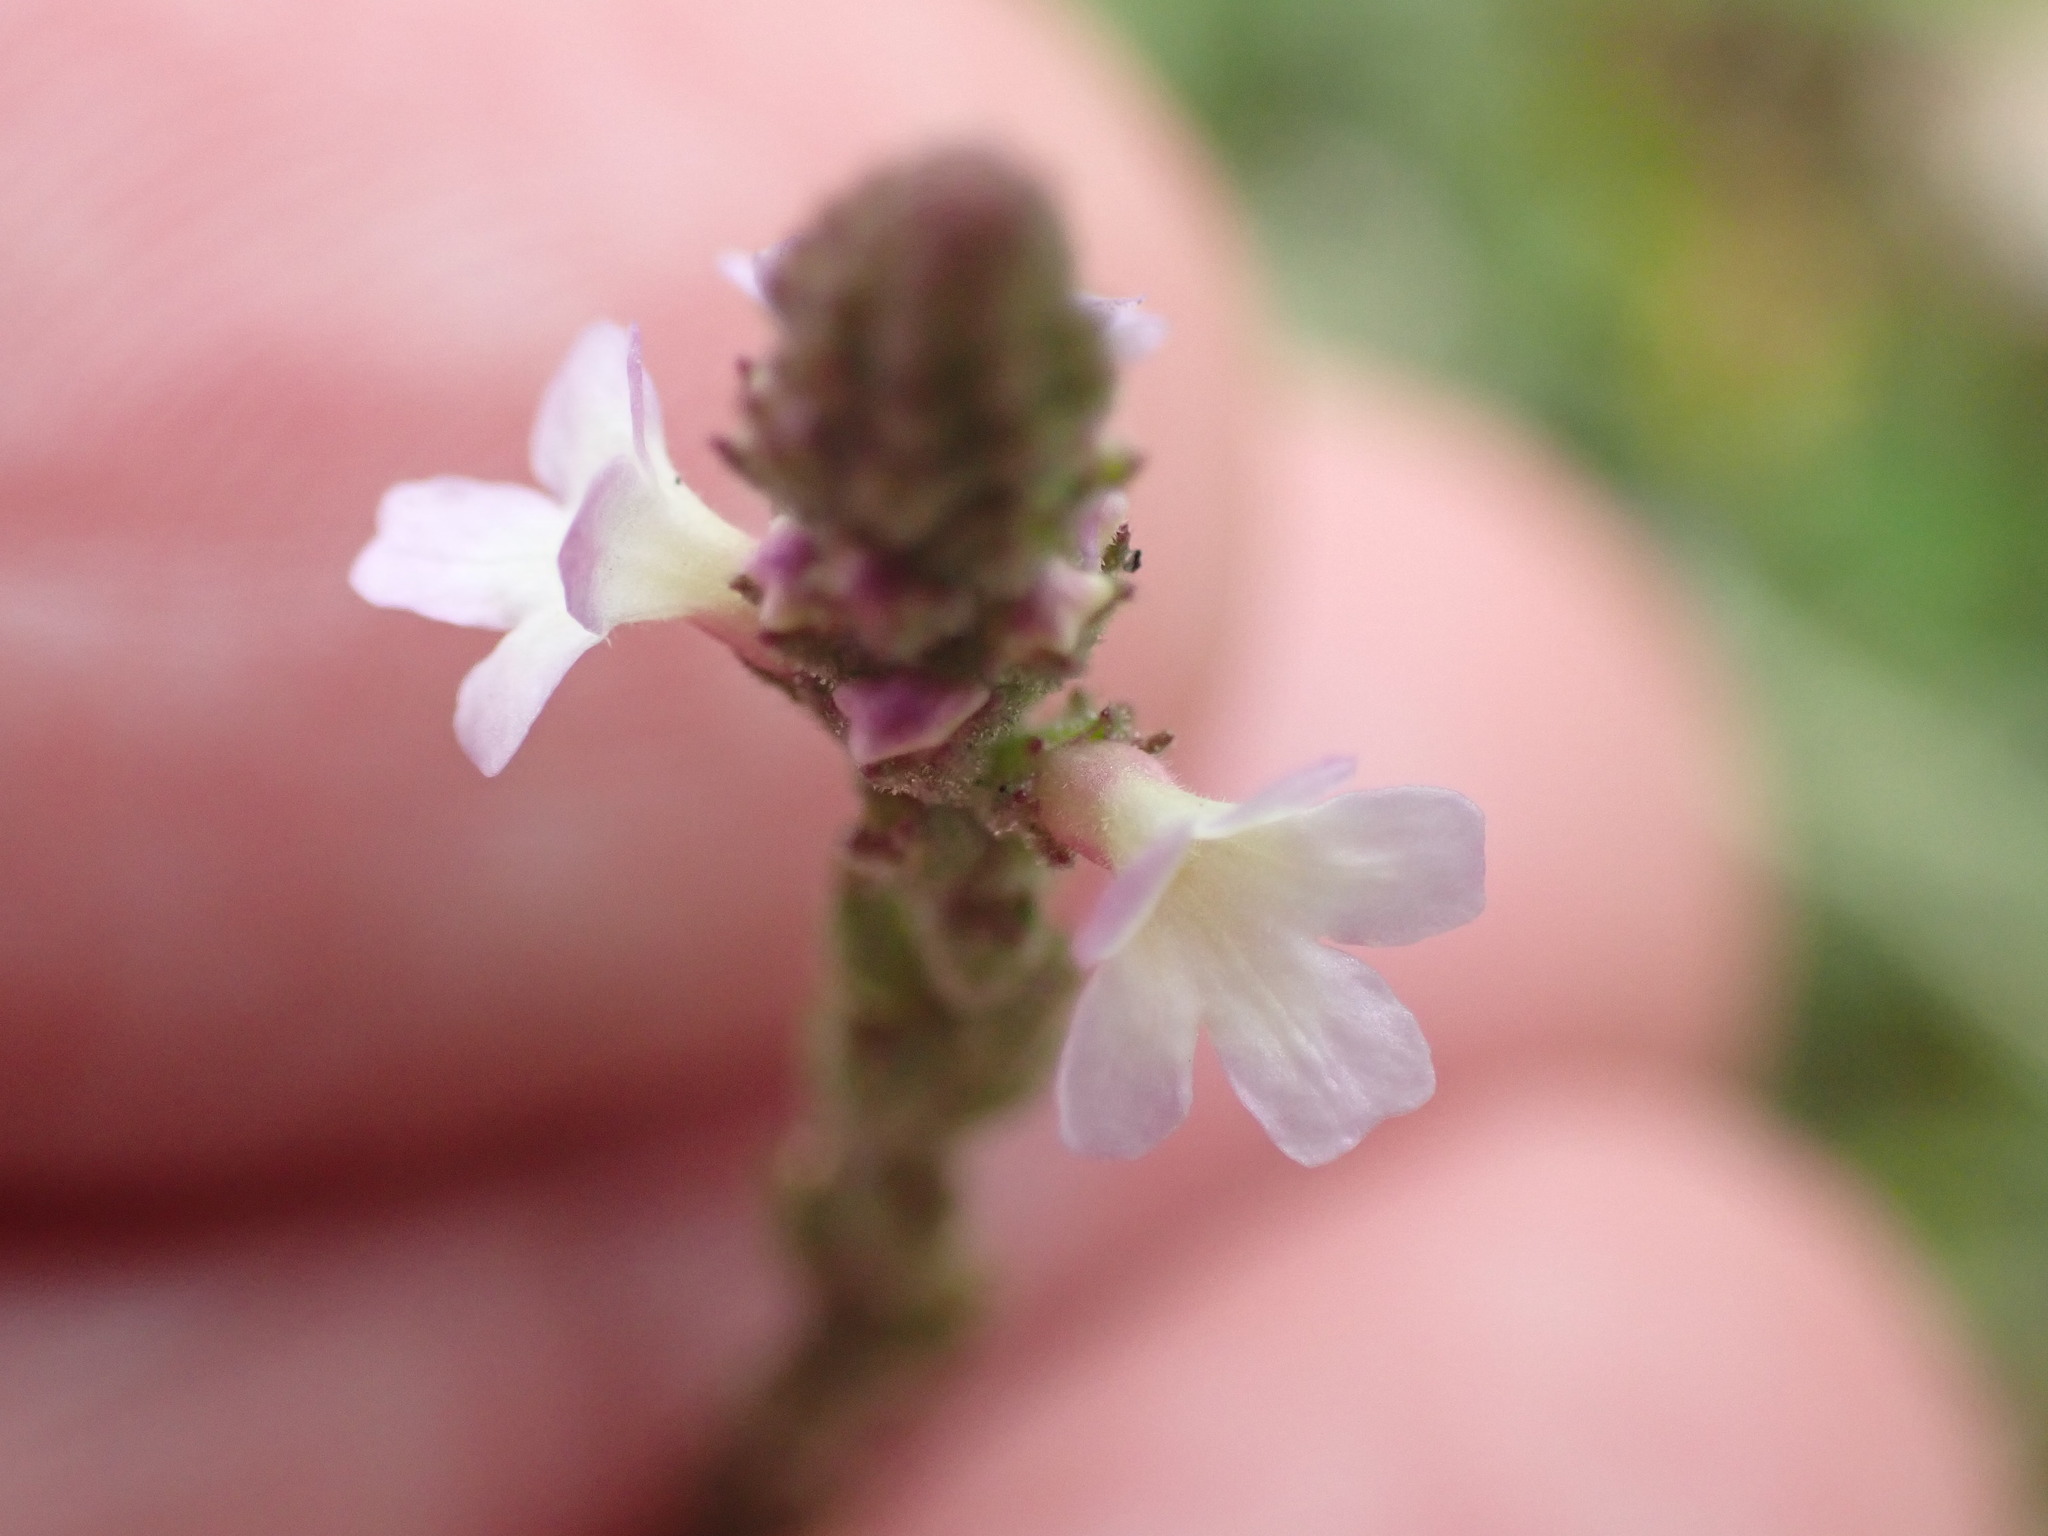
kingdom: Plantae
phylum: Tracheophyta
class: Magnoliopsida
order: Lamiales
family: Verbenaceae
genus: Verbena
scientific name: Verbena officinalis
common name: Vervain
